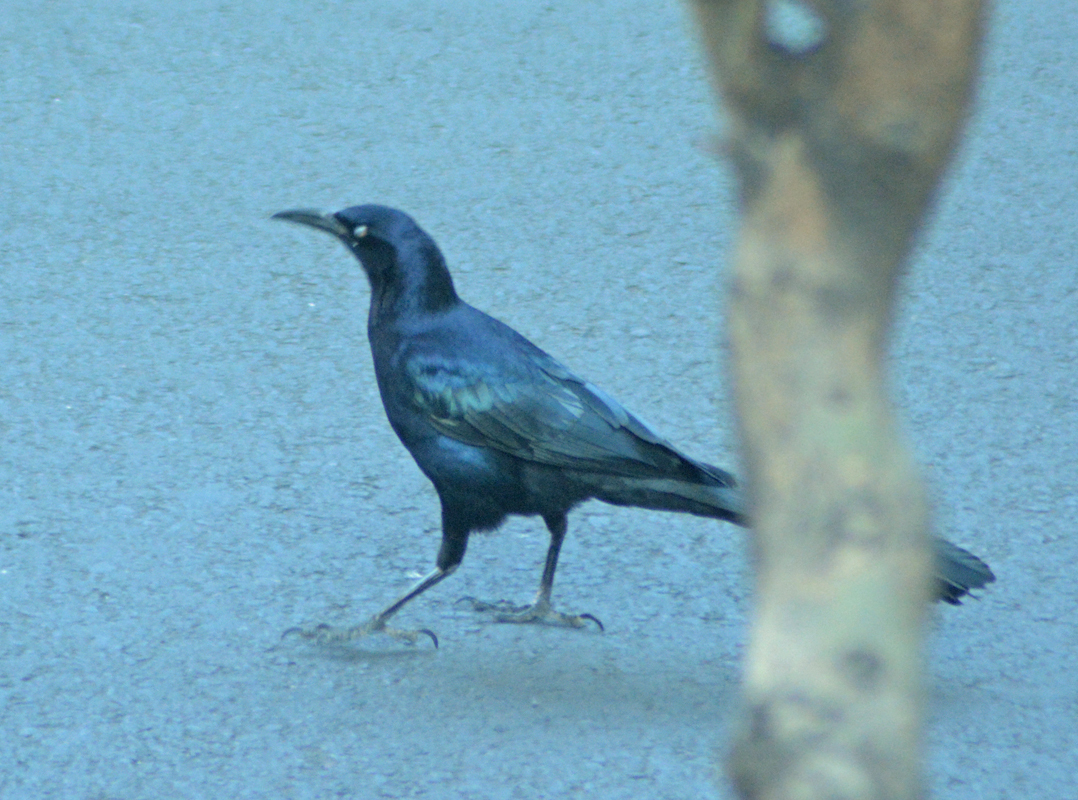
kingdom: Animalia
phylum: Chordata
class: Aves
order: Passeriformes
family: Icteridae
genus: Quiscalus
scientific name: Quiscalus mexicanus
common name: Great-tailed grackle
